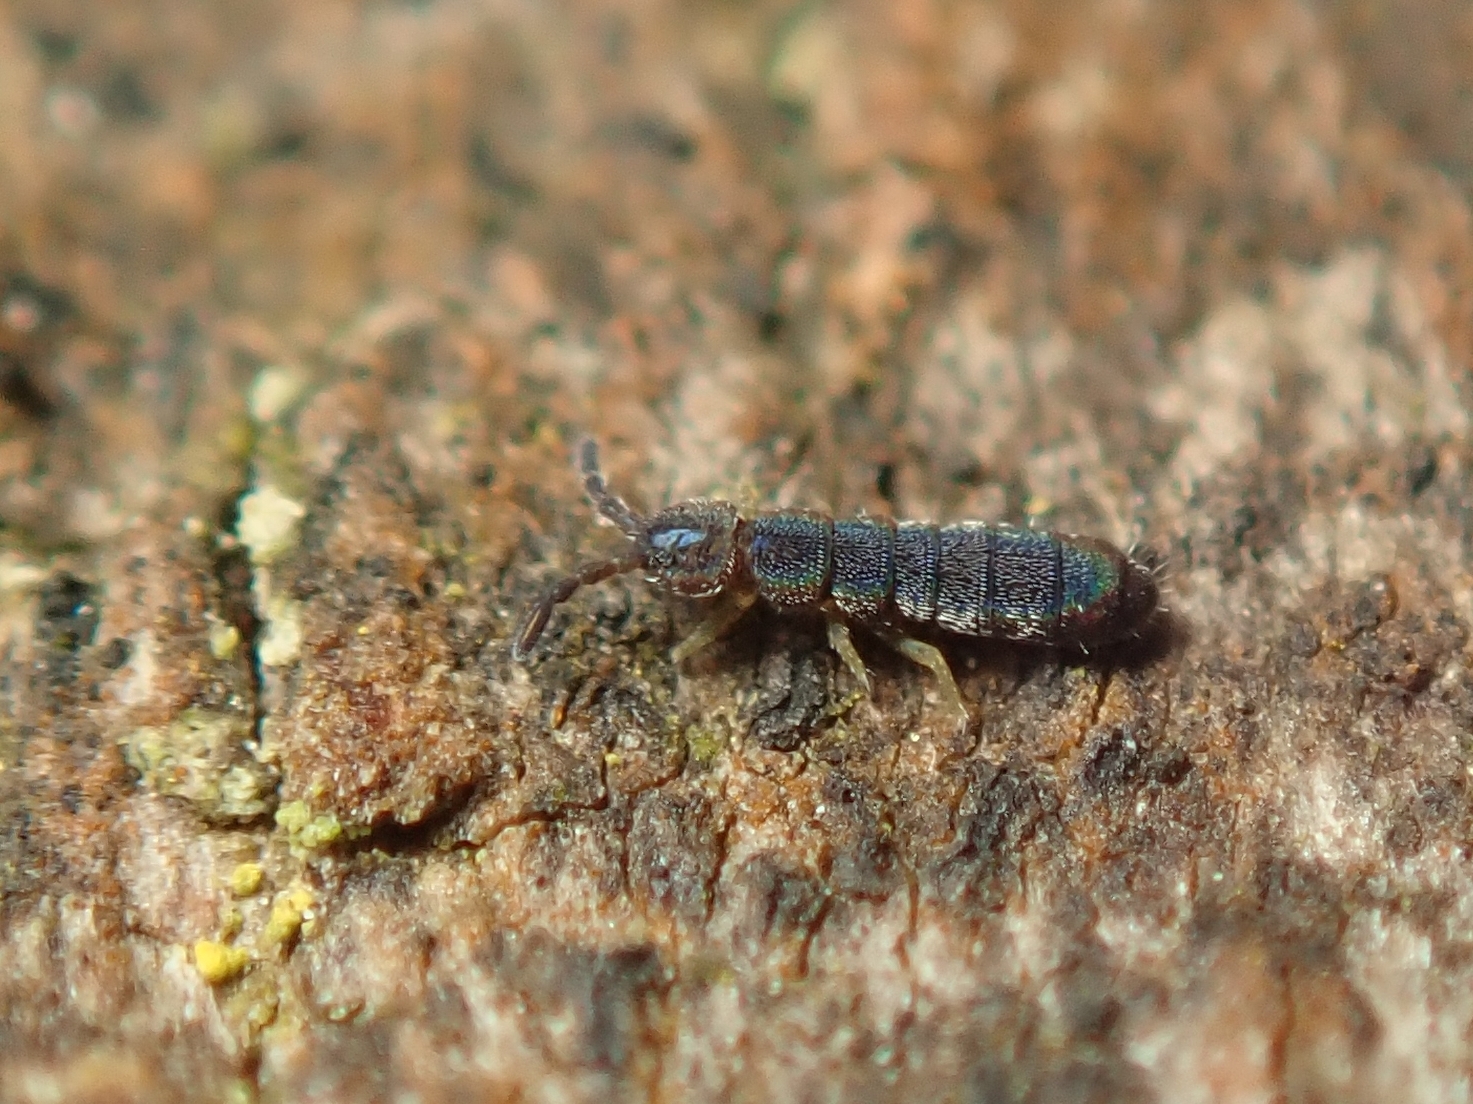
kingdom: Animalia
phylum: Arthropoda
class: Collembola
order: Entomobryomorpha
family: Isotomidae
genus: Vertagopus
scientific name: Vertagopus asiaticus
